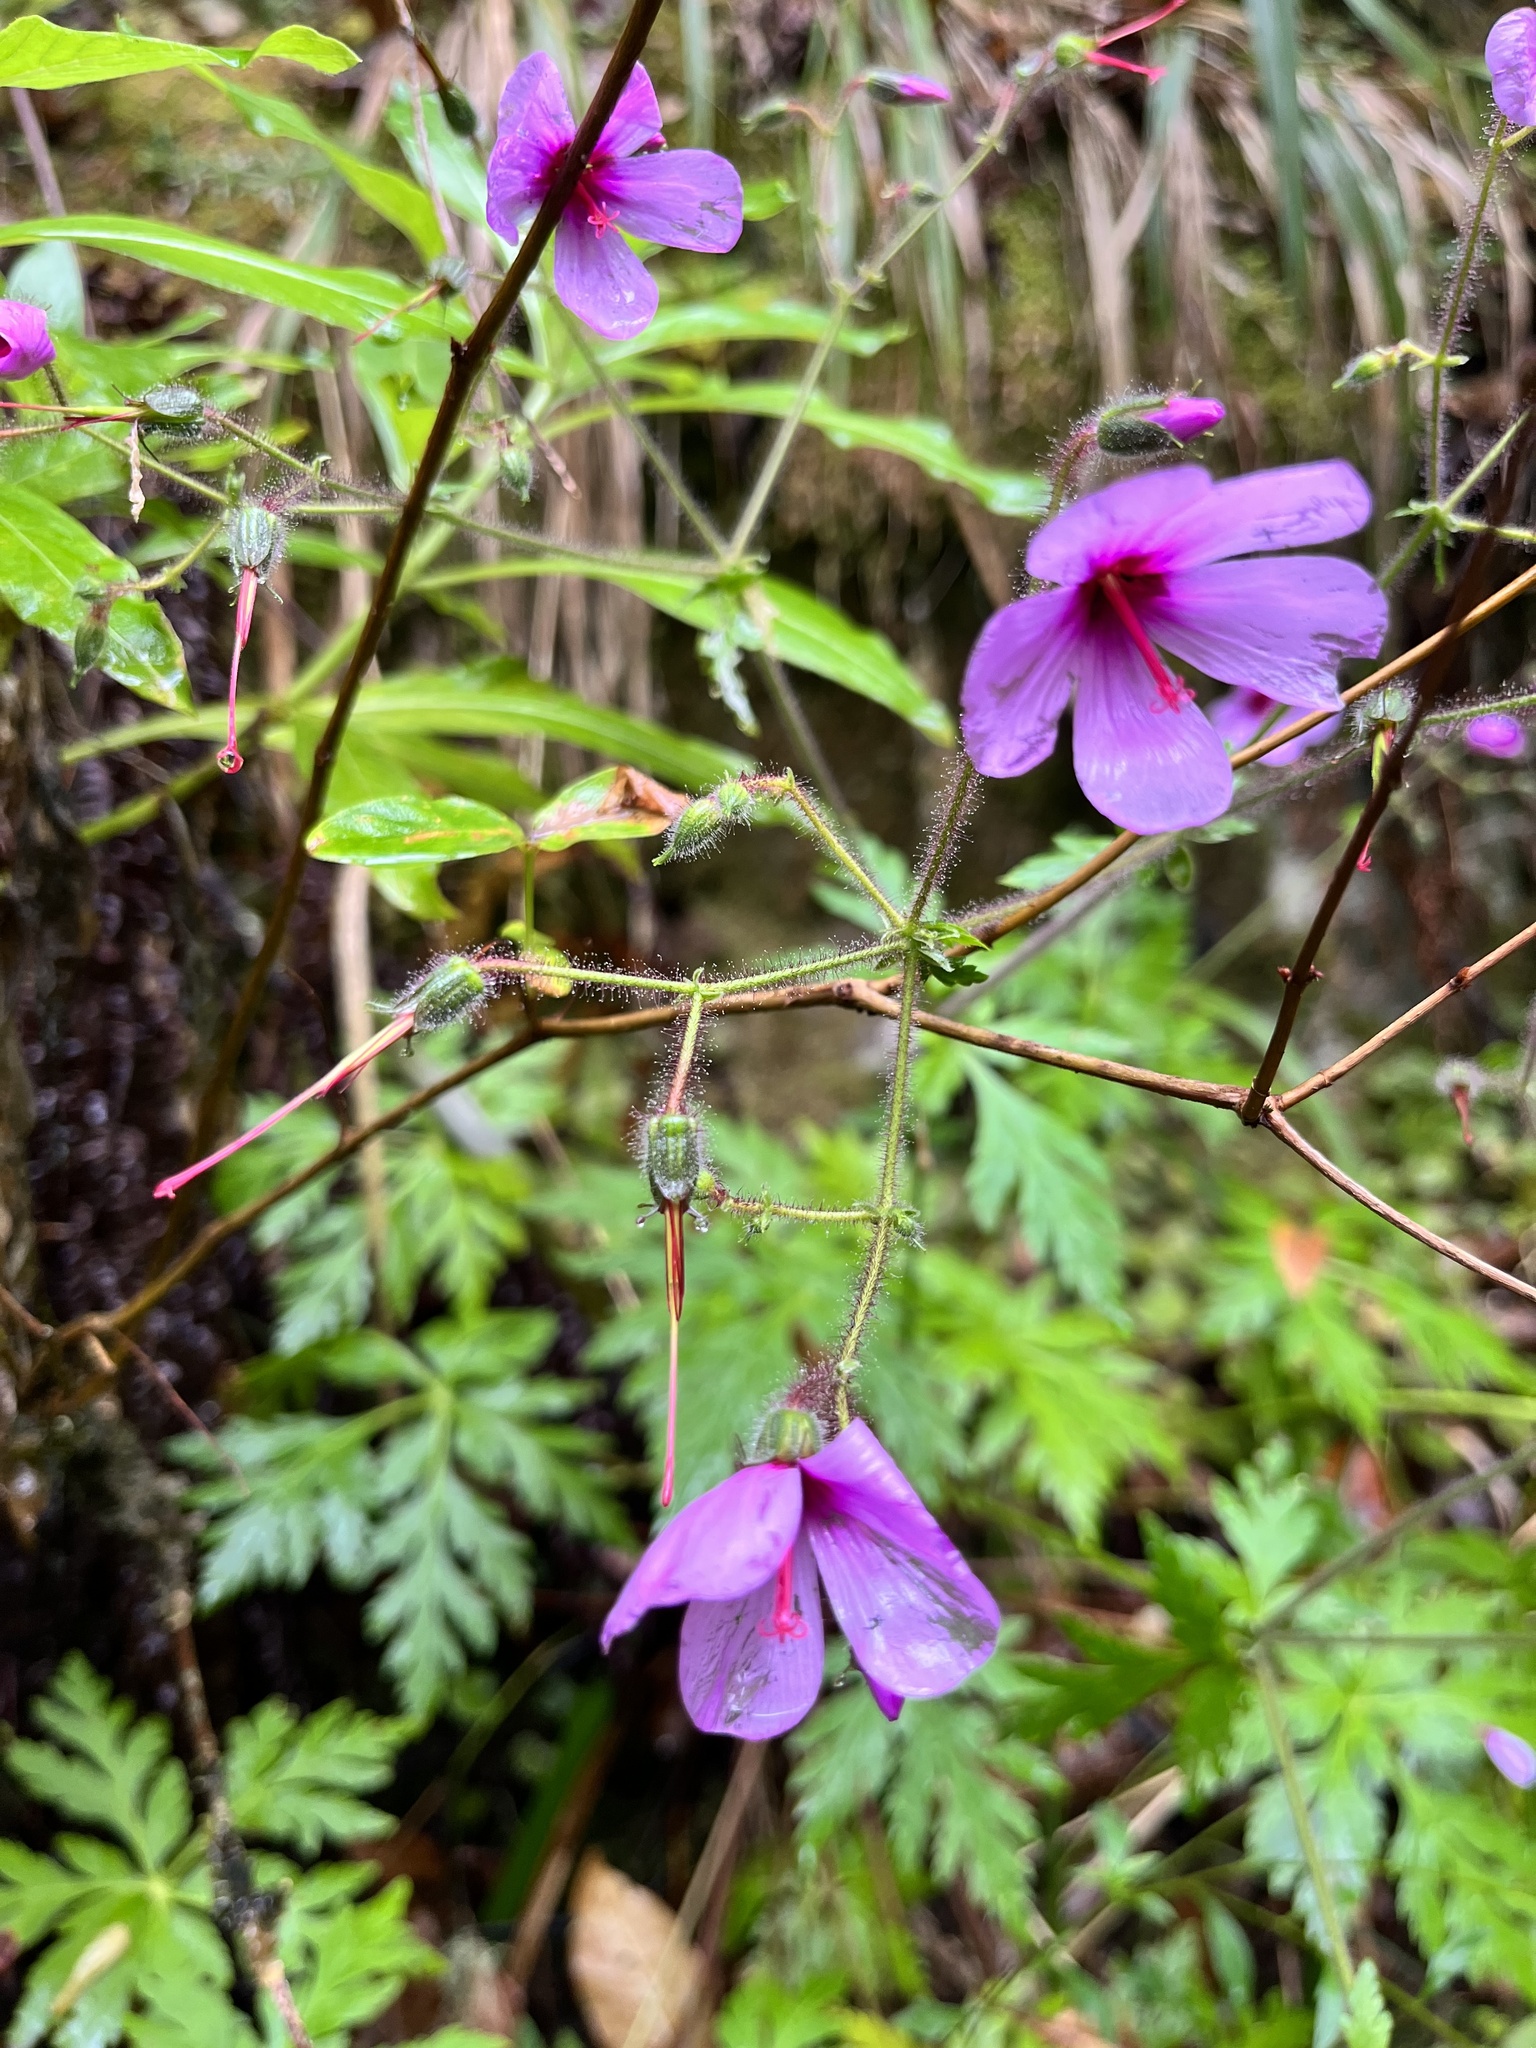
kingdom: Plantae
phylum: Tracheophyta
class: Magnoliopsida
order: Geraniales
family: Geraniaceae
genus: Geranium
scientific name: Geranium palmatum
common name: Canary island geranium
